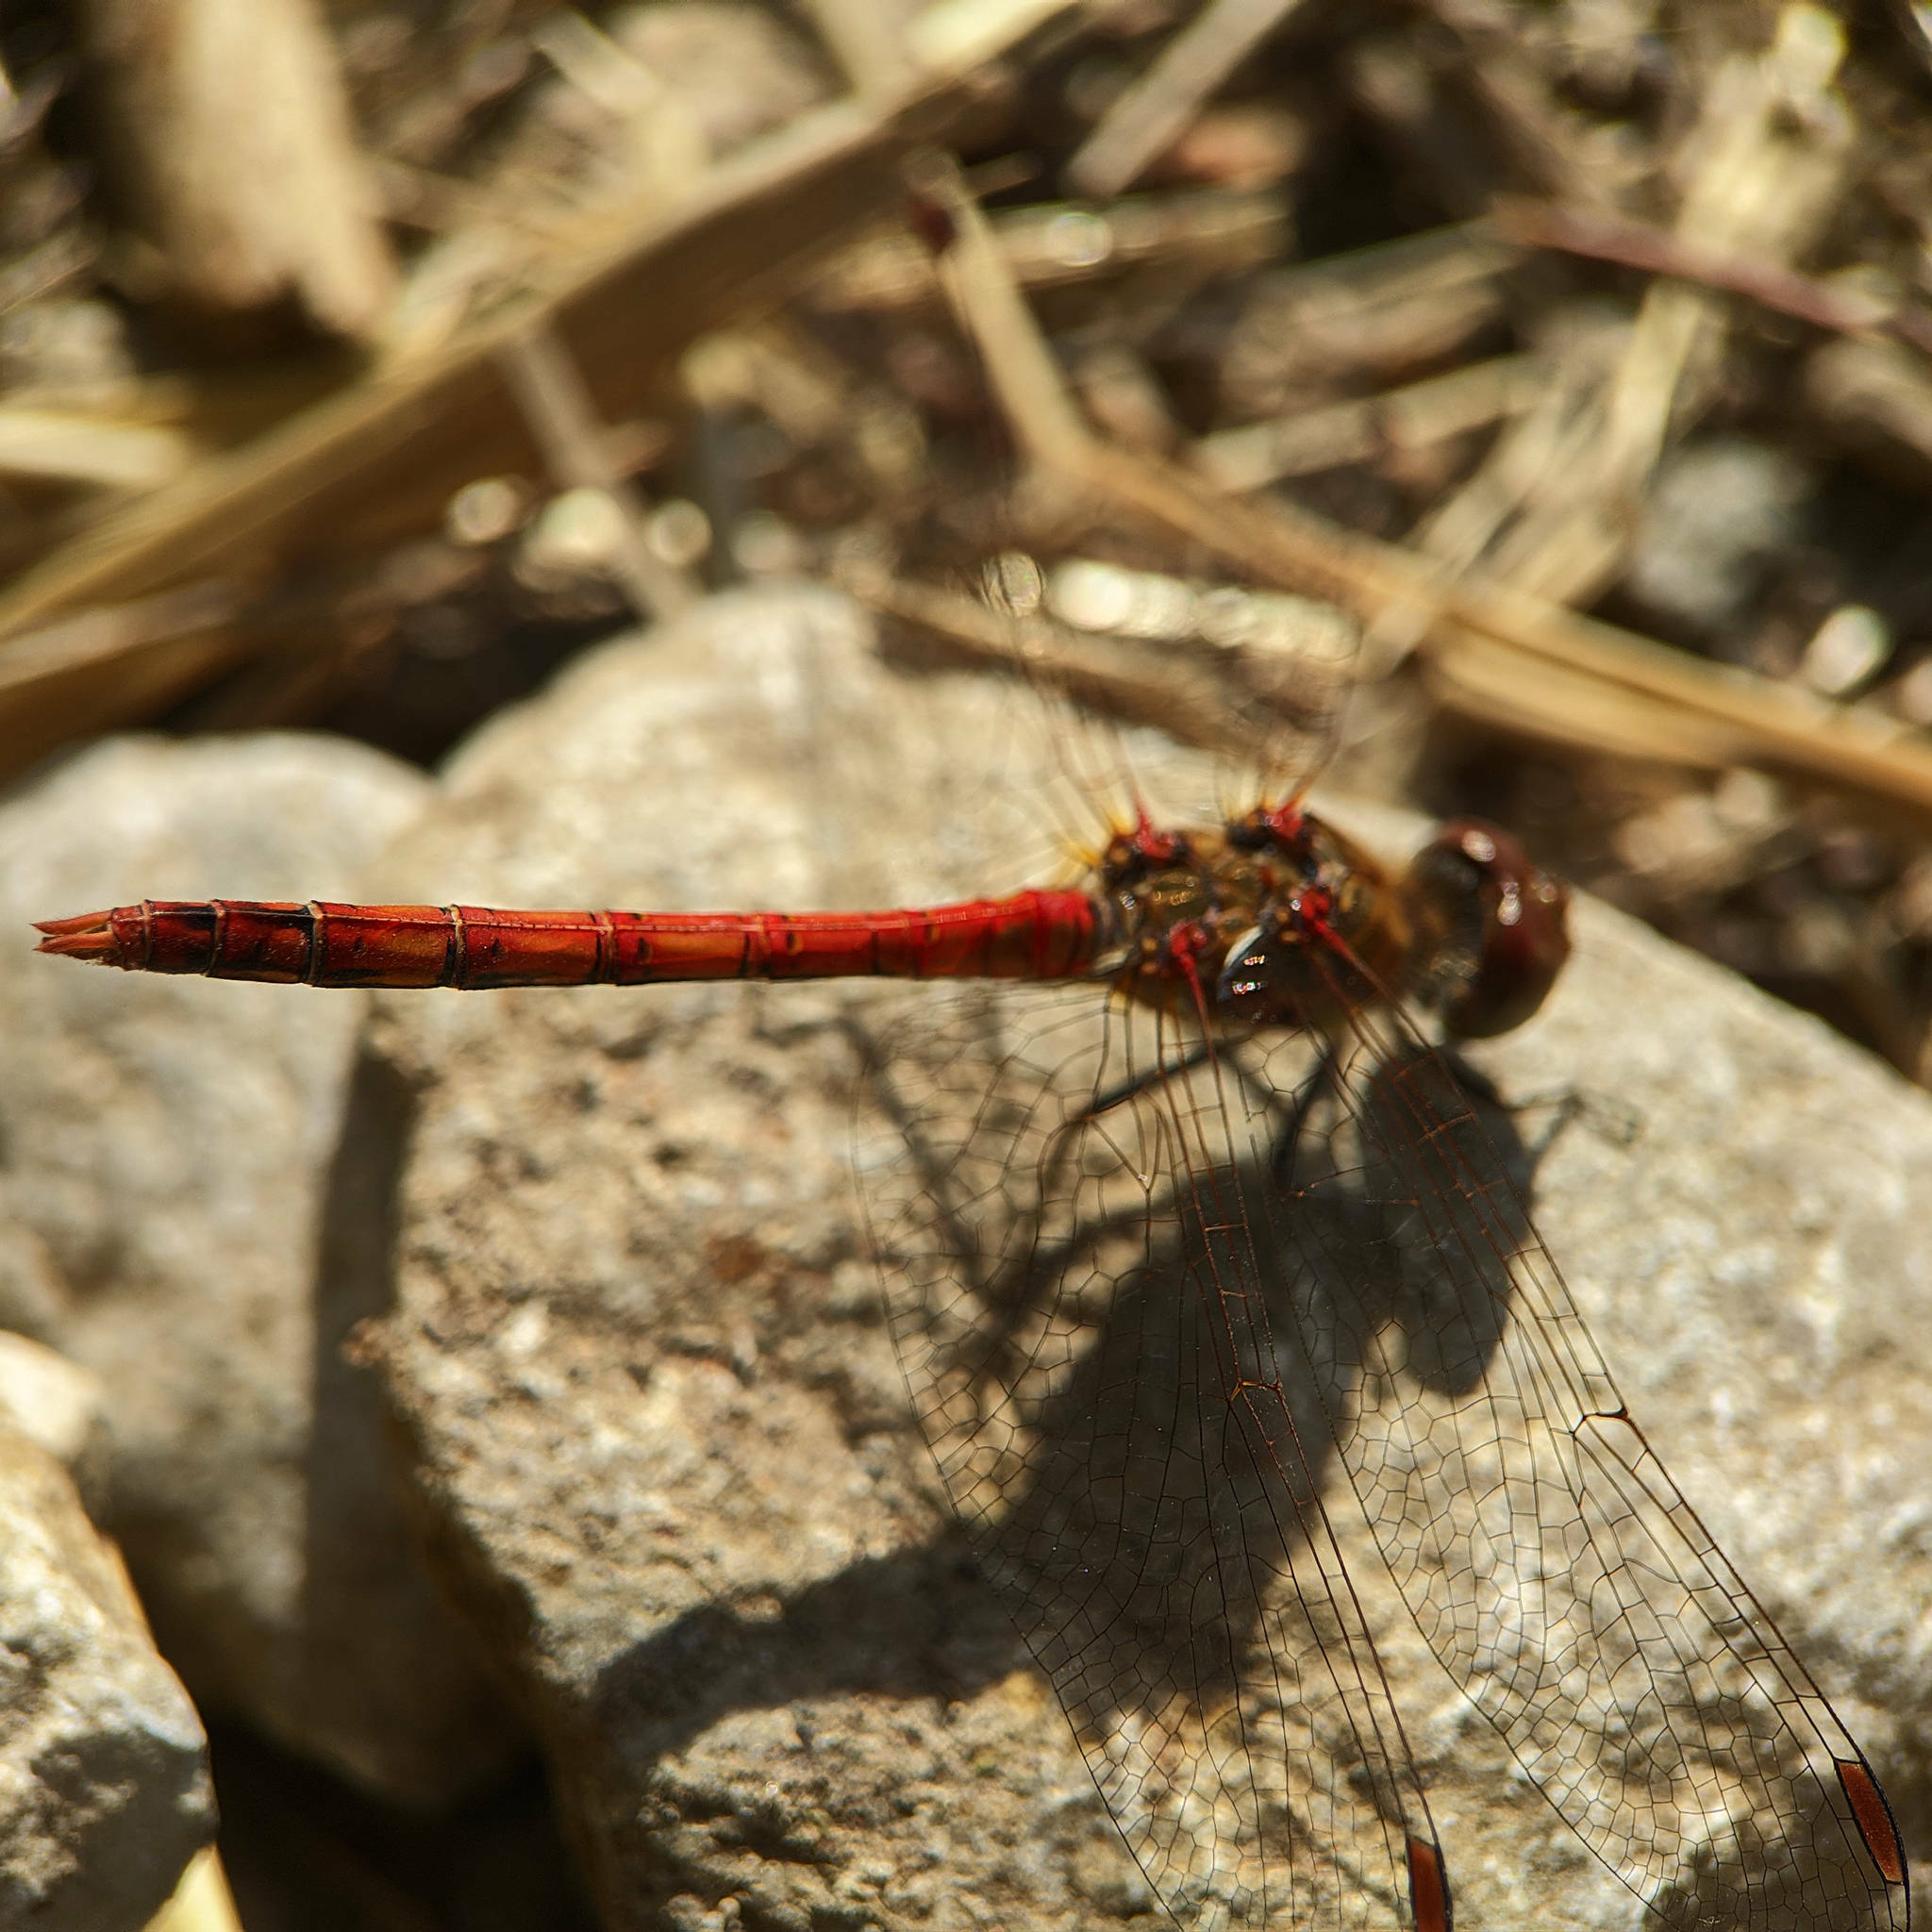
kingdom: Animalia
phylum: Arthropoda
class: Insecta
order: Odonata
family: Libellulidae
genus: Sympetrum
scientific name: Sympetrum striolatum
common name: Common darter
